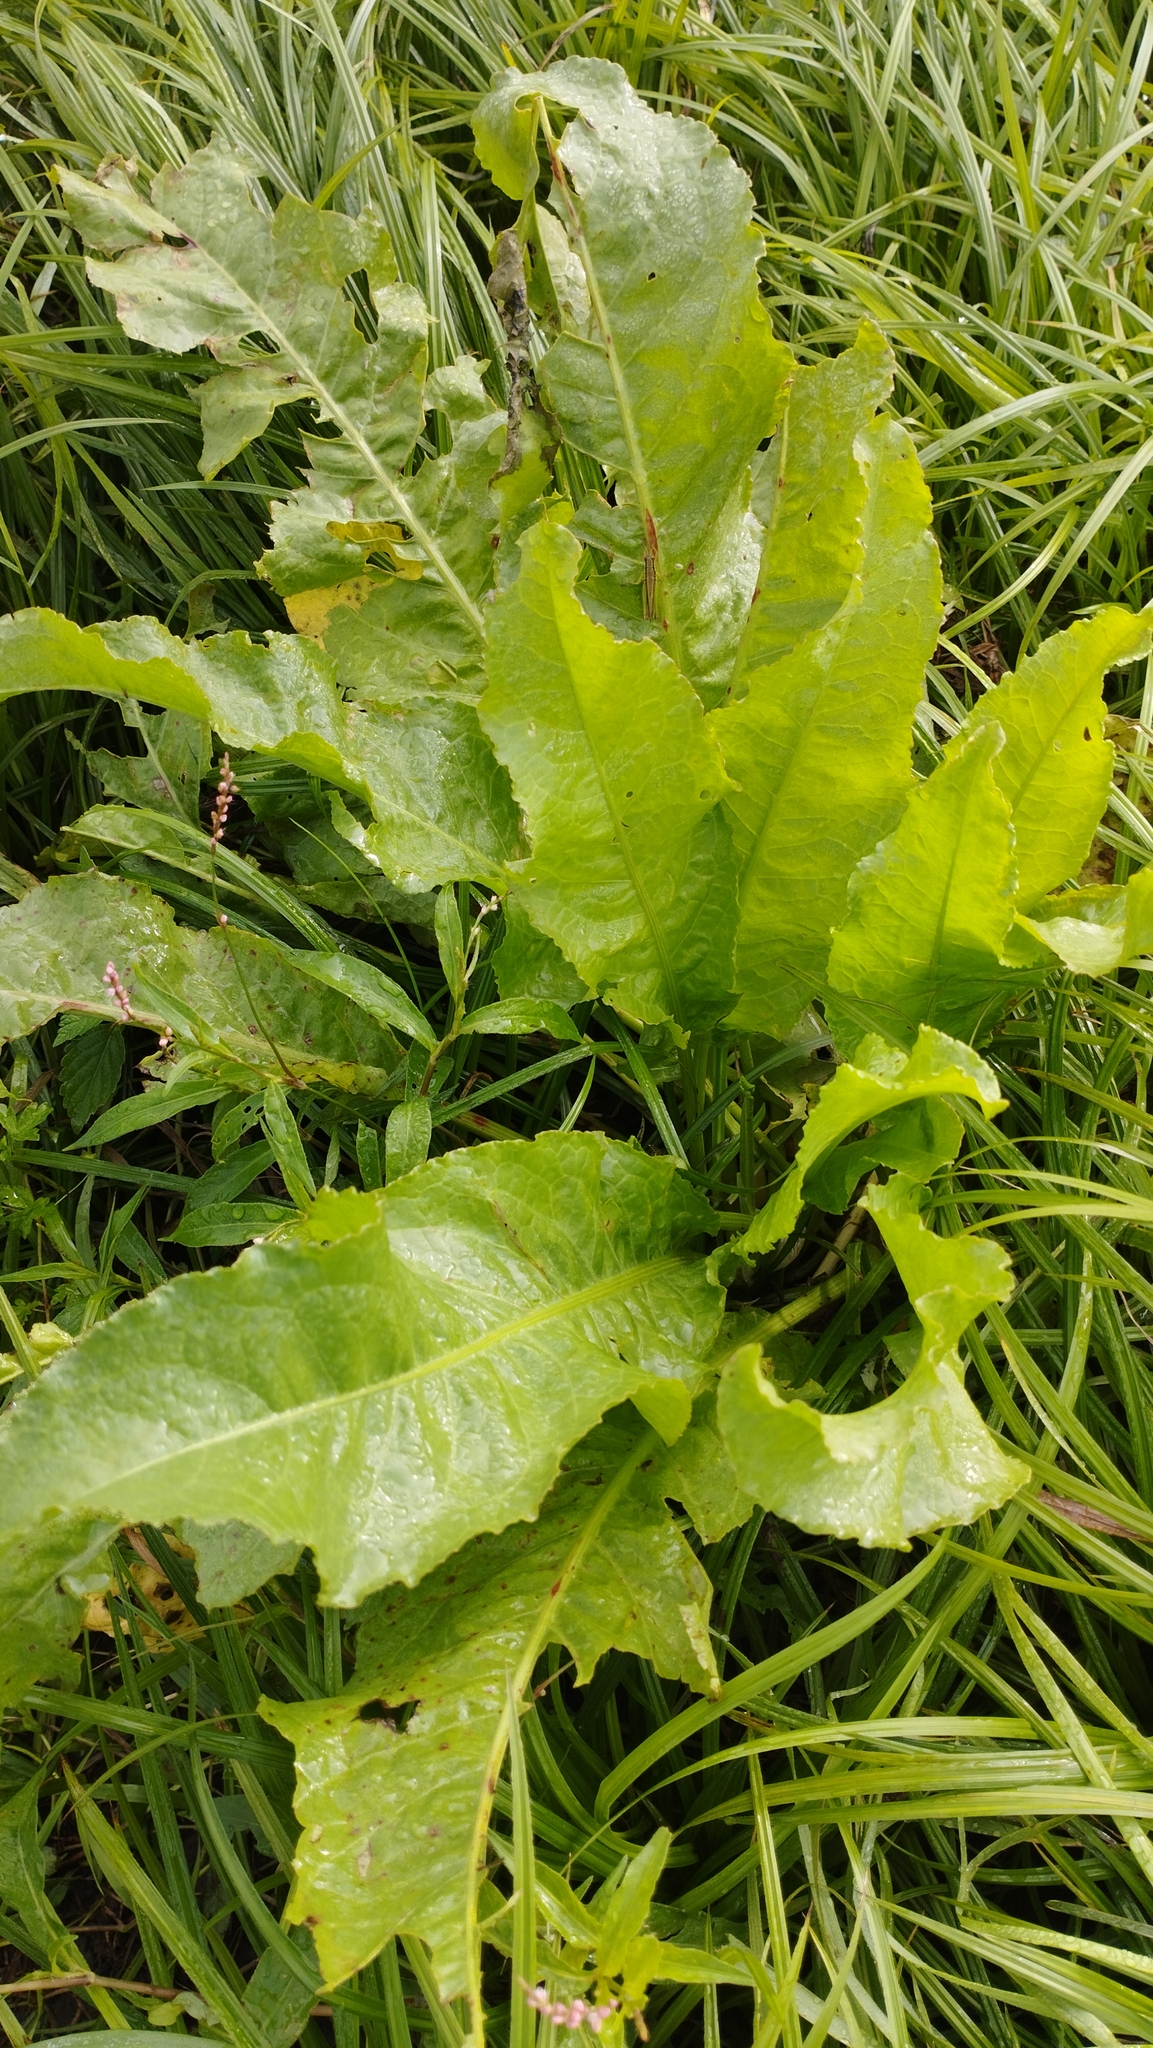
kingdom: Plantae
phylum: Tracheophyta
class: Magnoliopsida
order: Brassicales
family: Brassicaceae
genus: Armoracia
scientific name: Armoracia rusticana
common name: Horseradish
